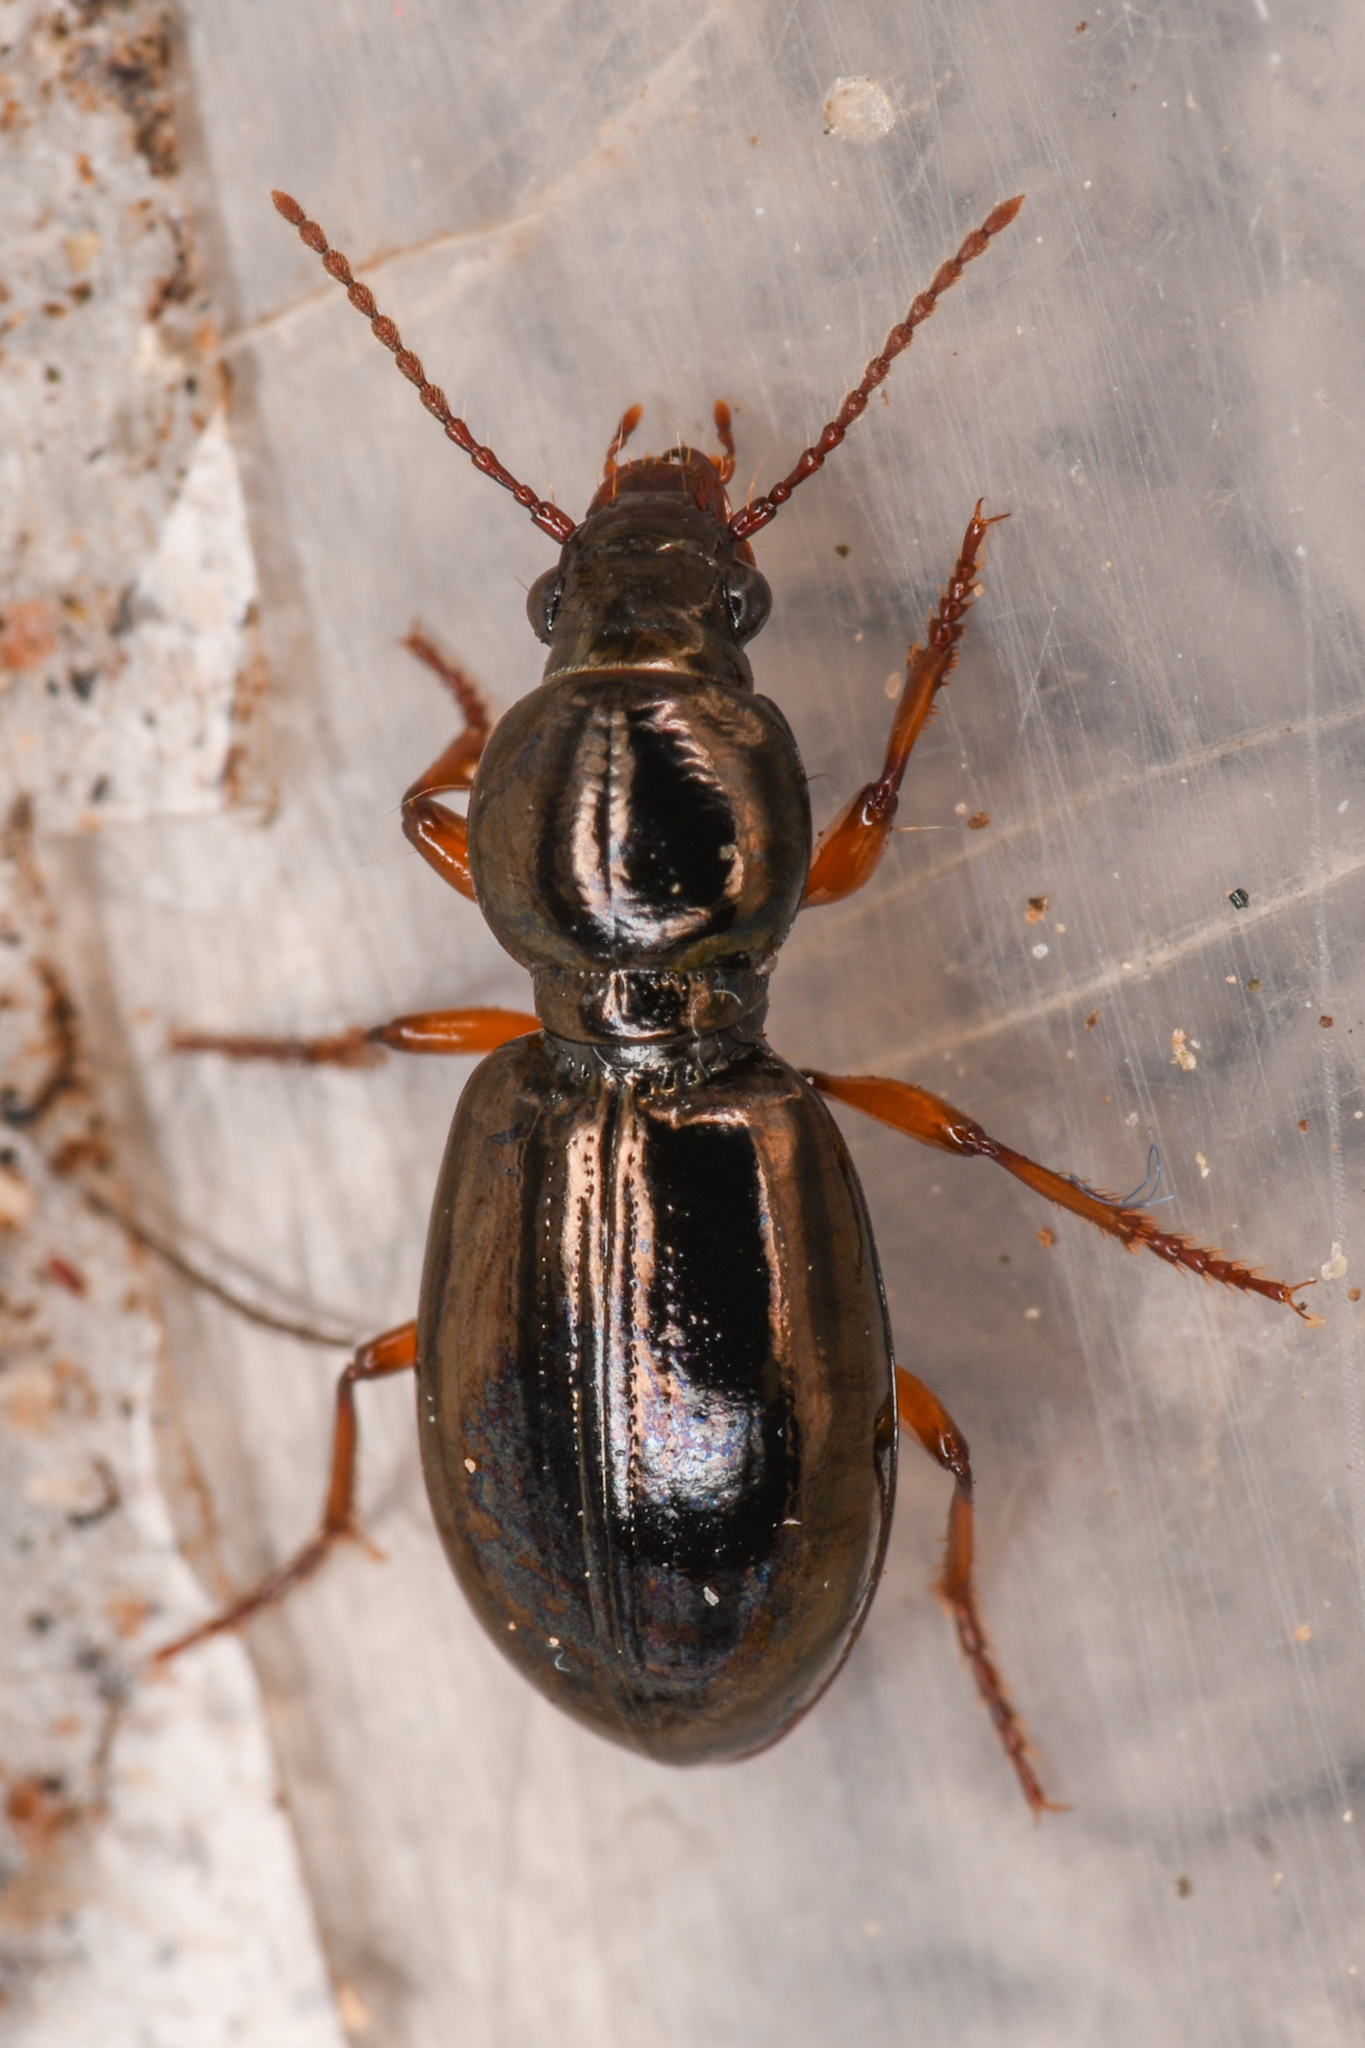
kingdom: Animalia
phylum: Arthropoda
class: Insecta
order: Coleoptera
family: Carabidae
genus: Miscodera
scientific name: Miscodera arctica
